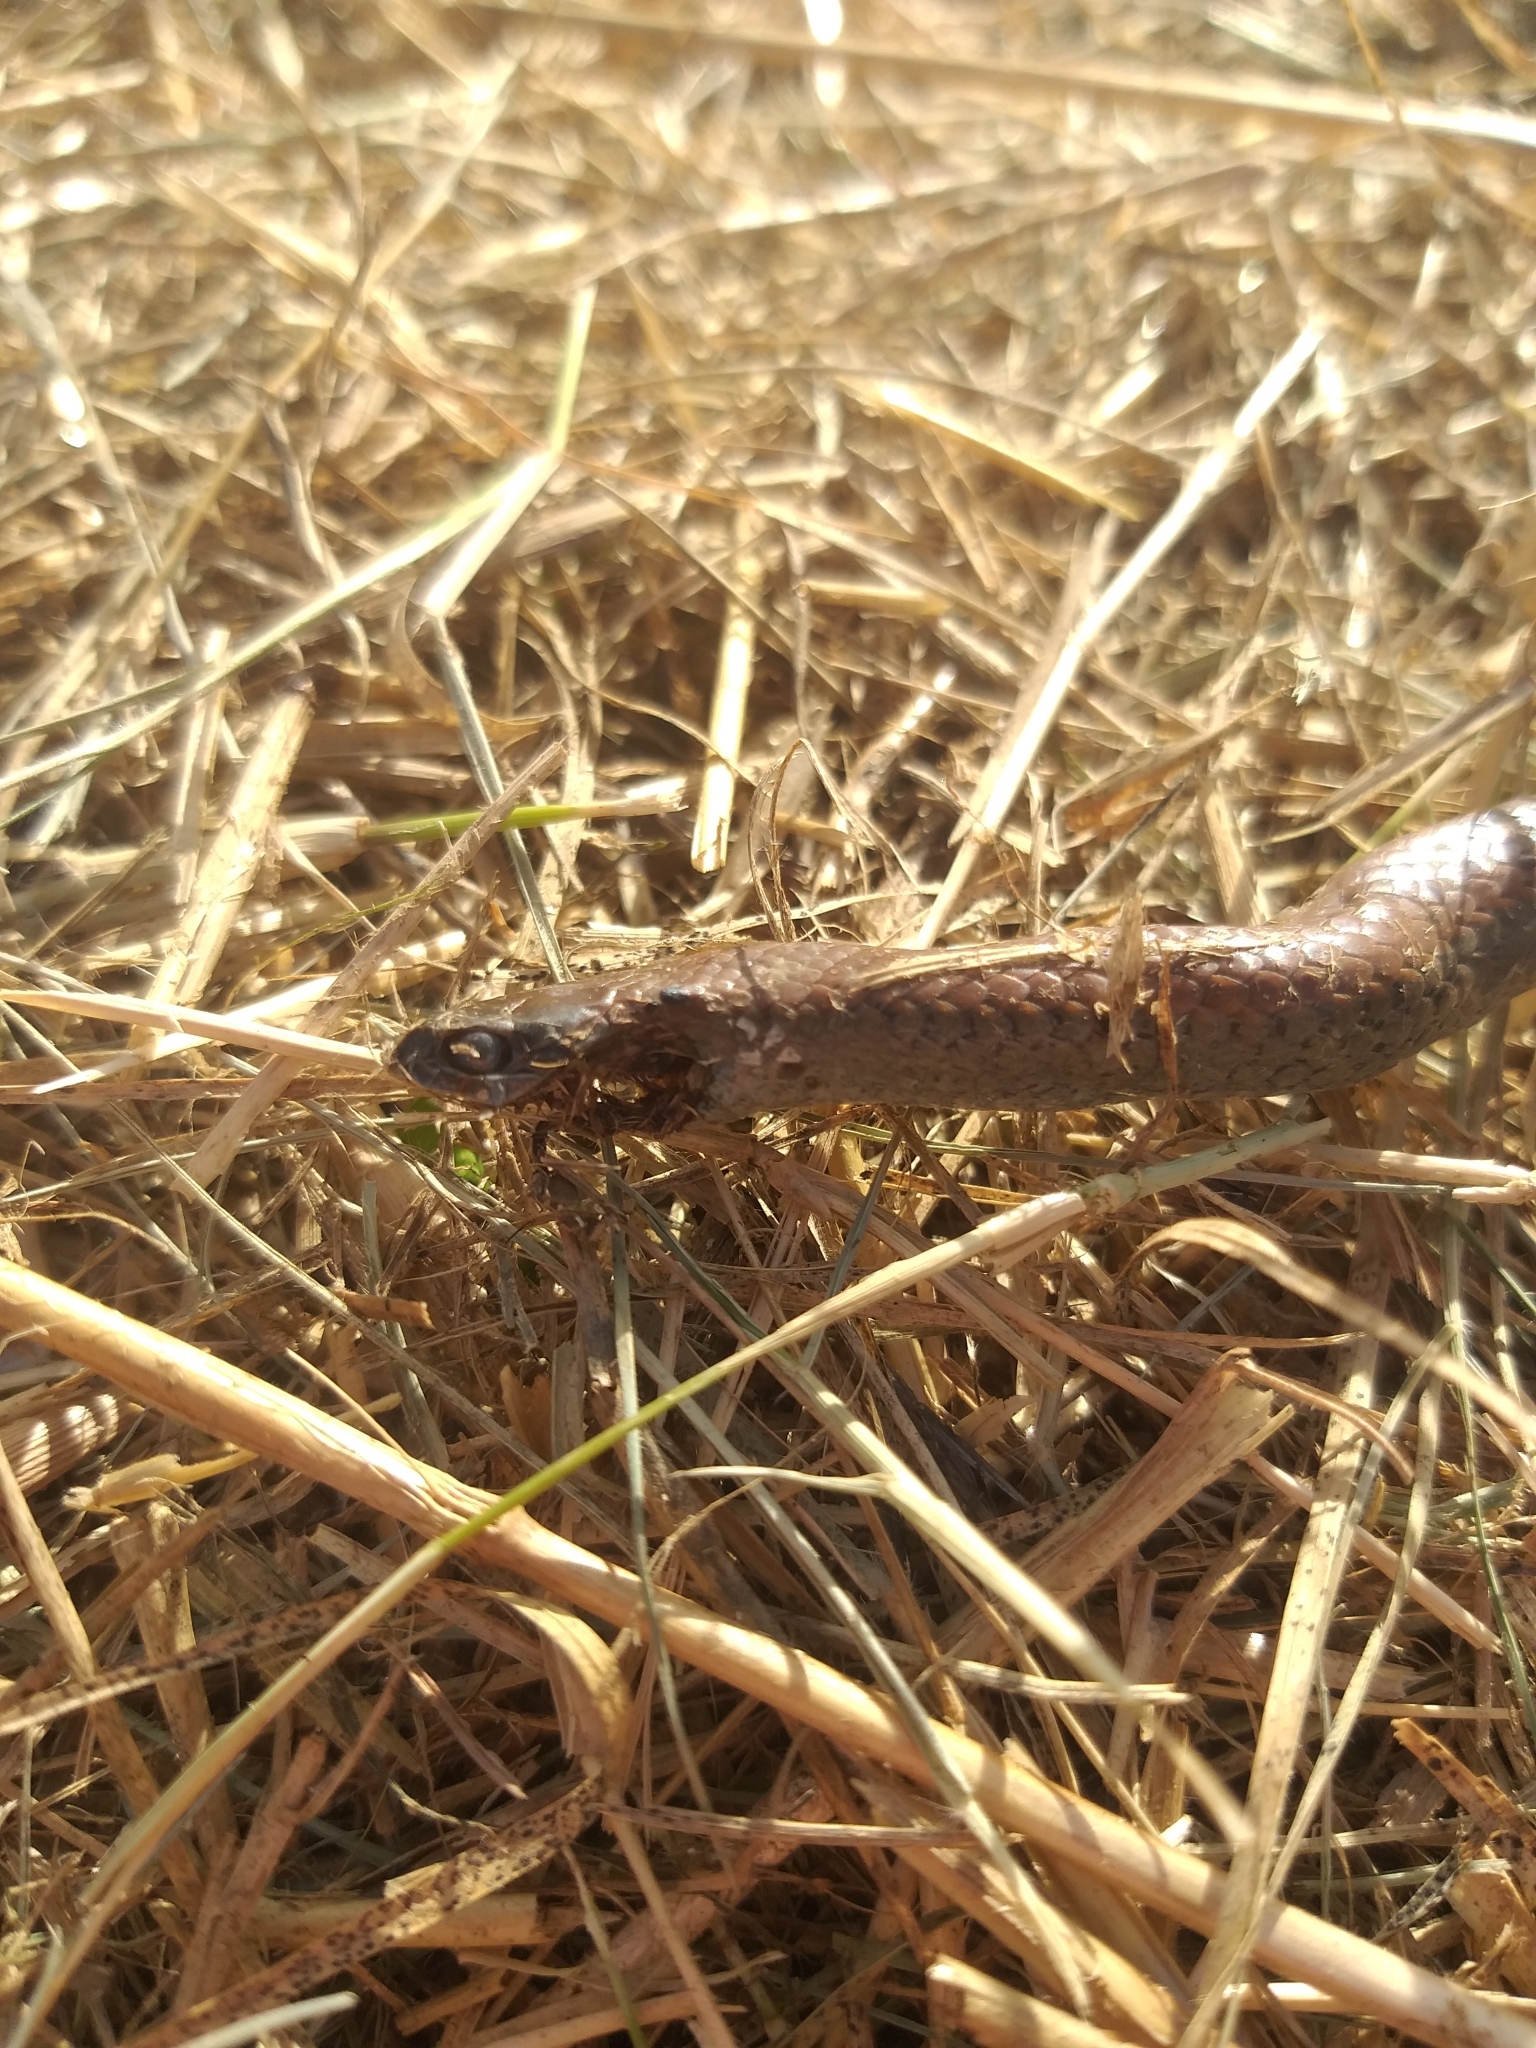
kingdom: Animalia
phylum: Chordata
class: Squamata
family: Pseudoxyrhophiidae
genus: Duberria
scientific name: Duberria lutrix
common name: Common slug eater
